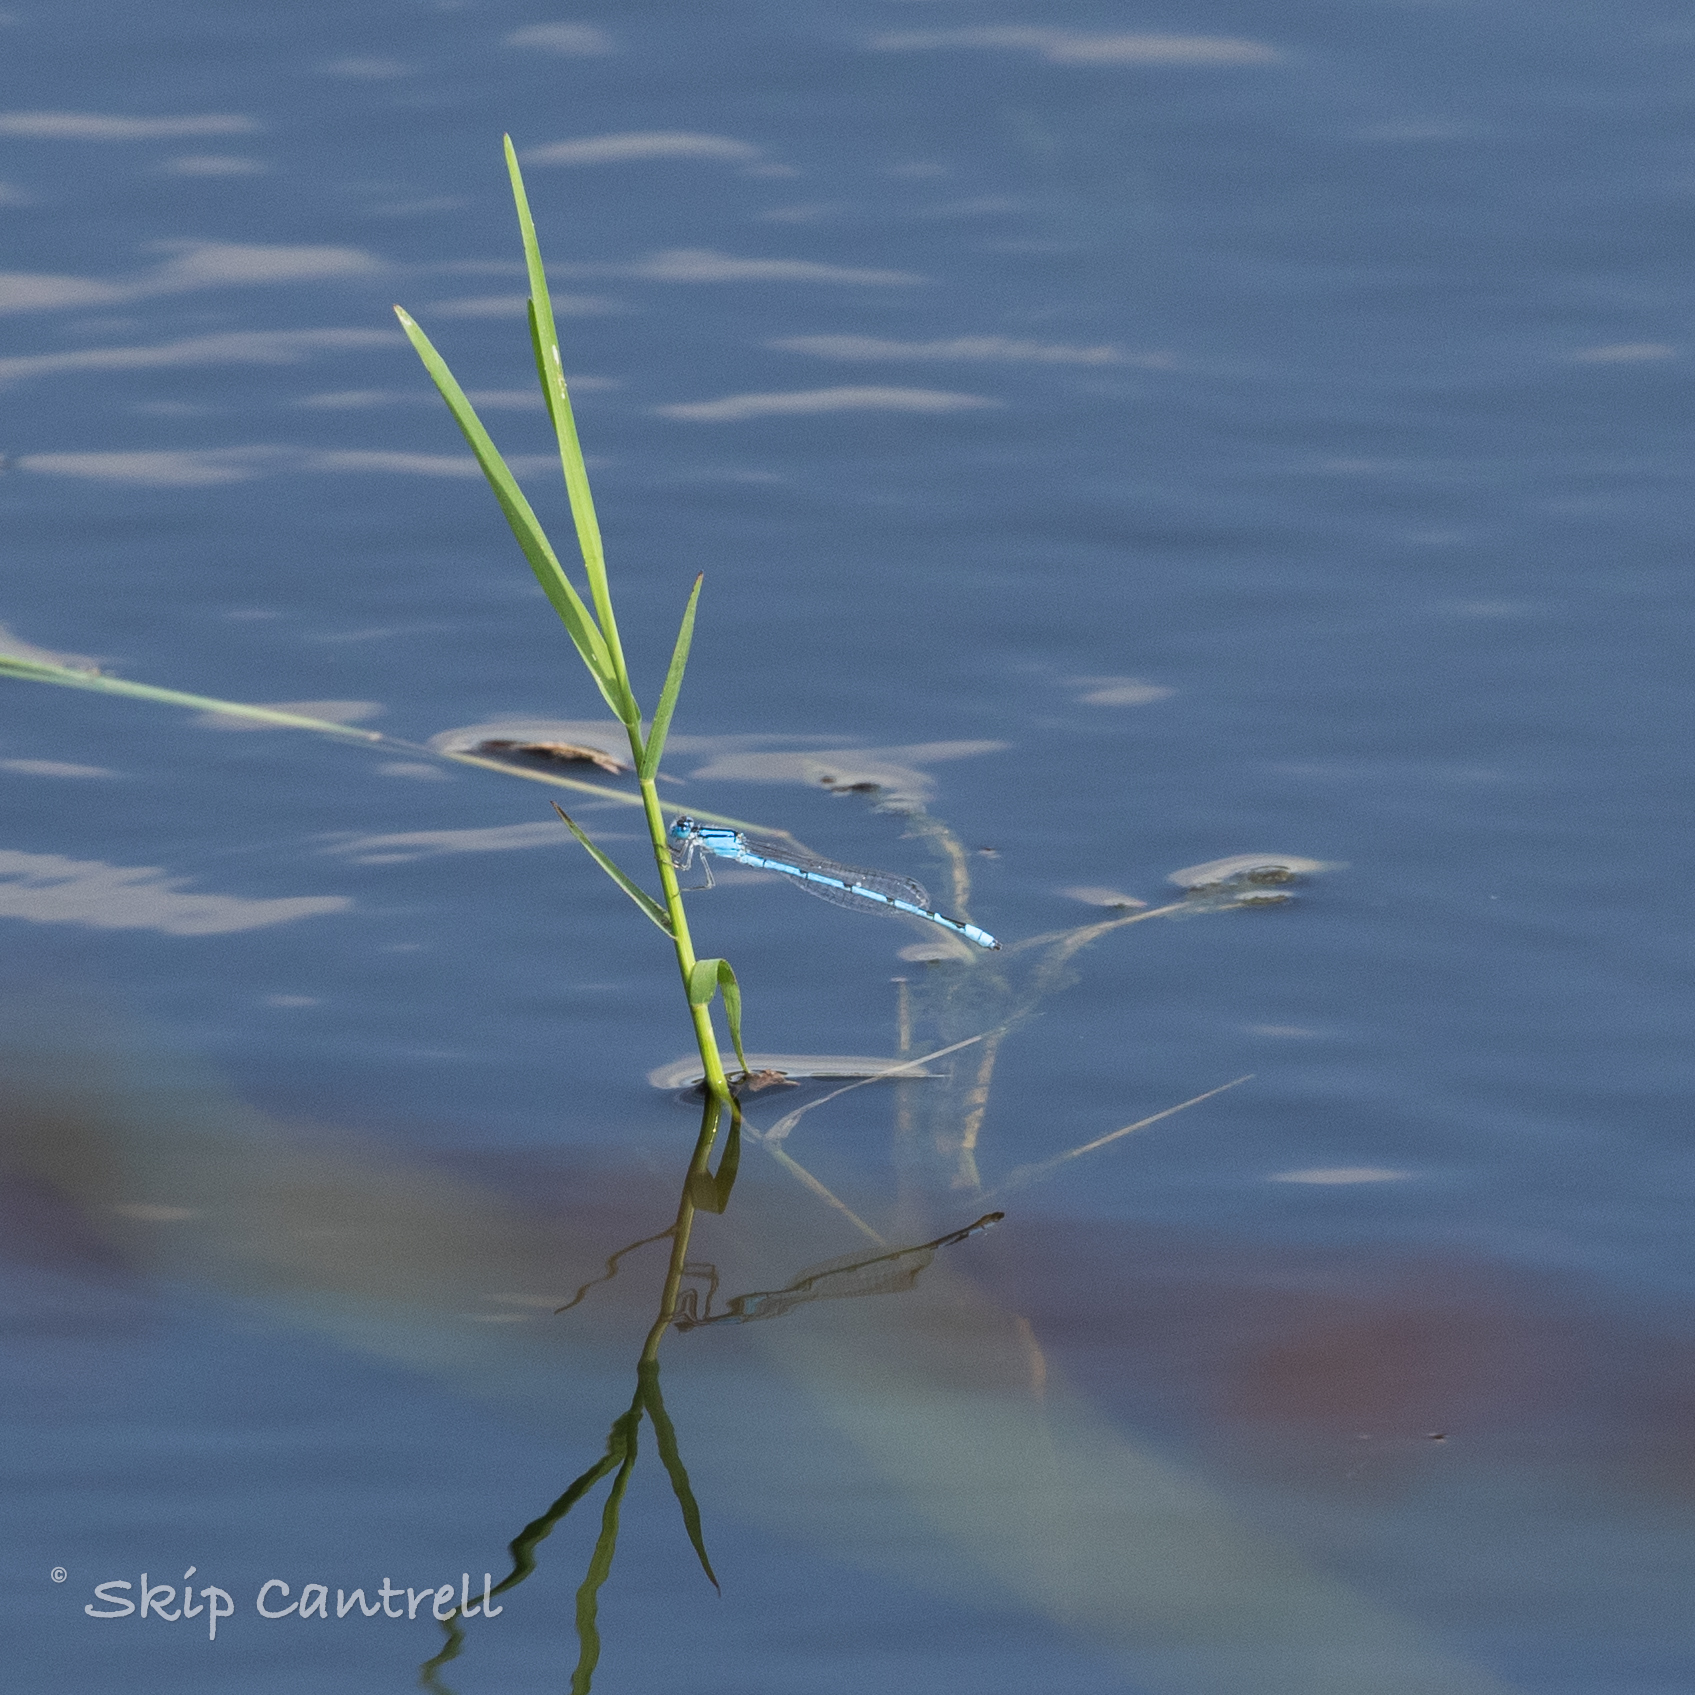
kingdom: Animalia
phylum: Arthropoda
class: Insecta
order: Odonata
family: Coenagrionidae
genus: Enallagma
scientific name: Enallagma civile
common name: Damselfly
